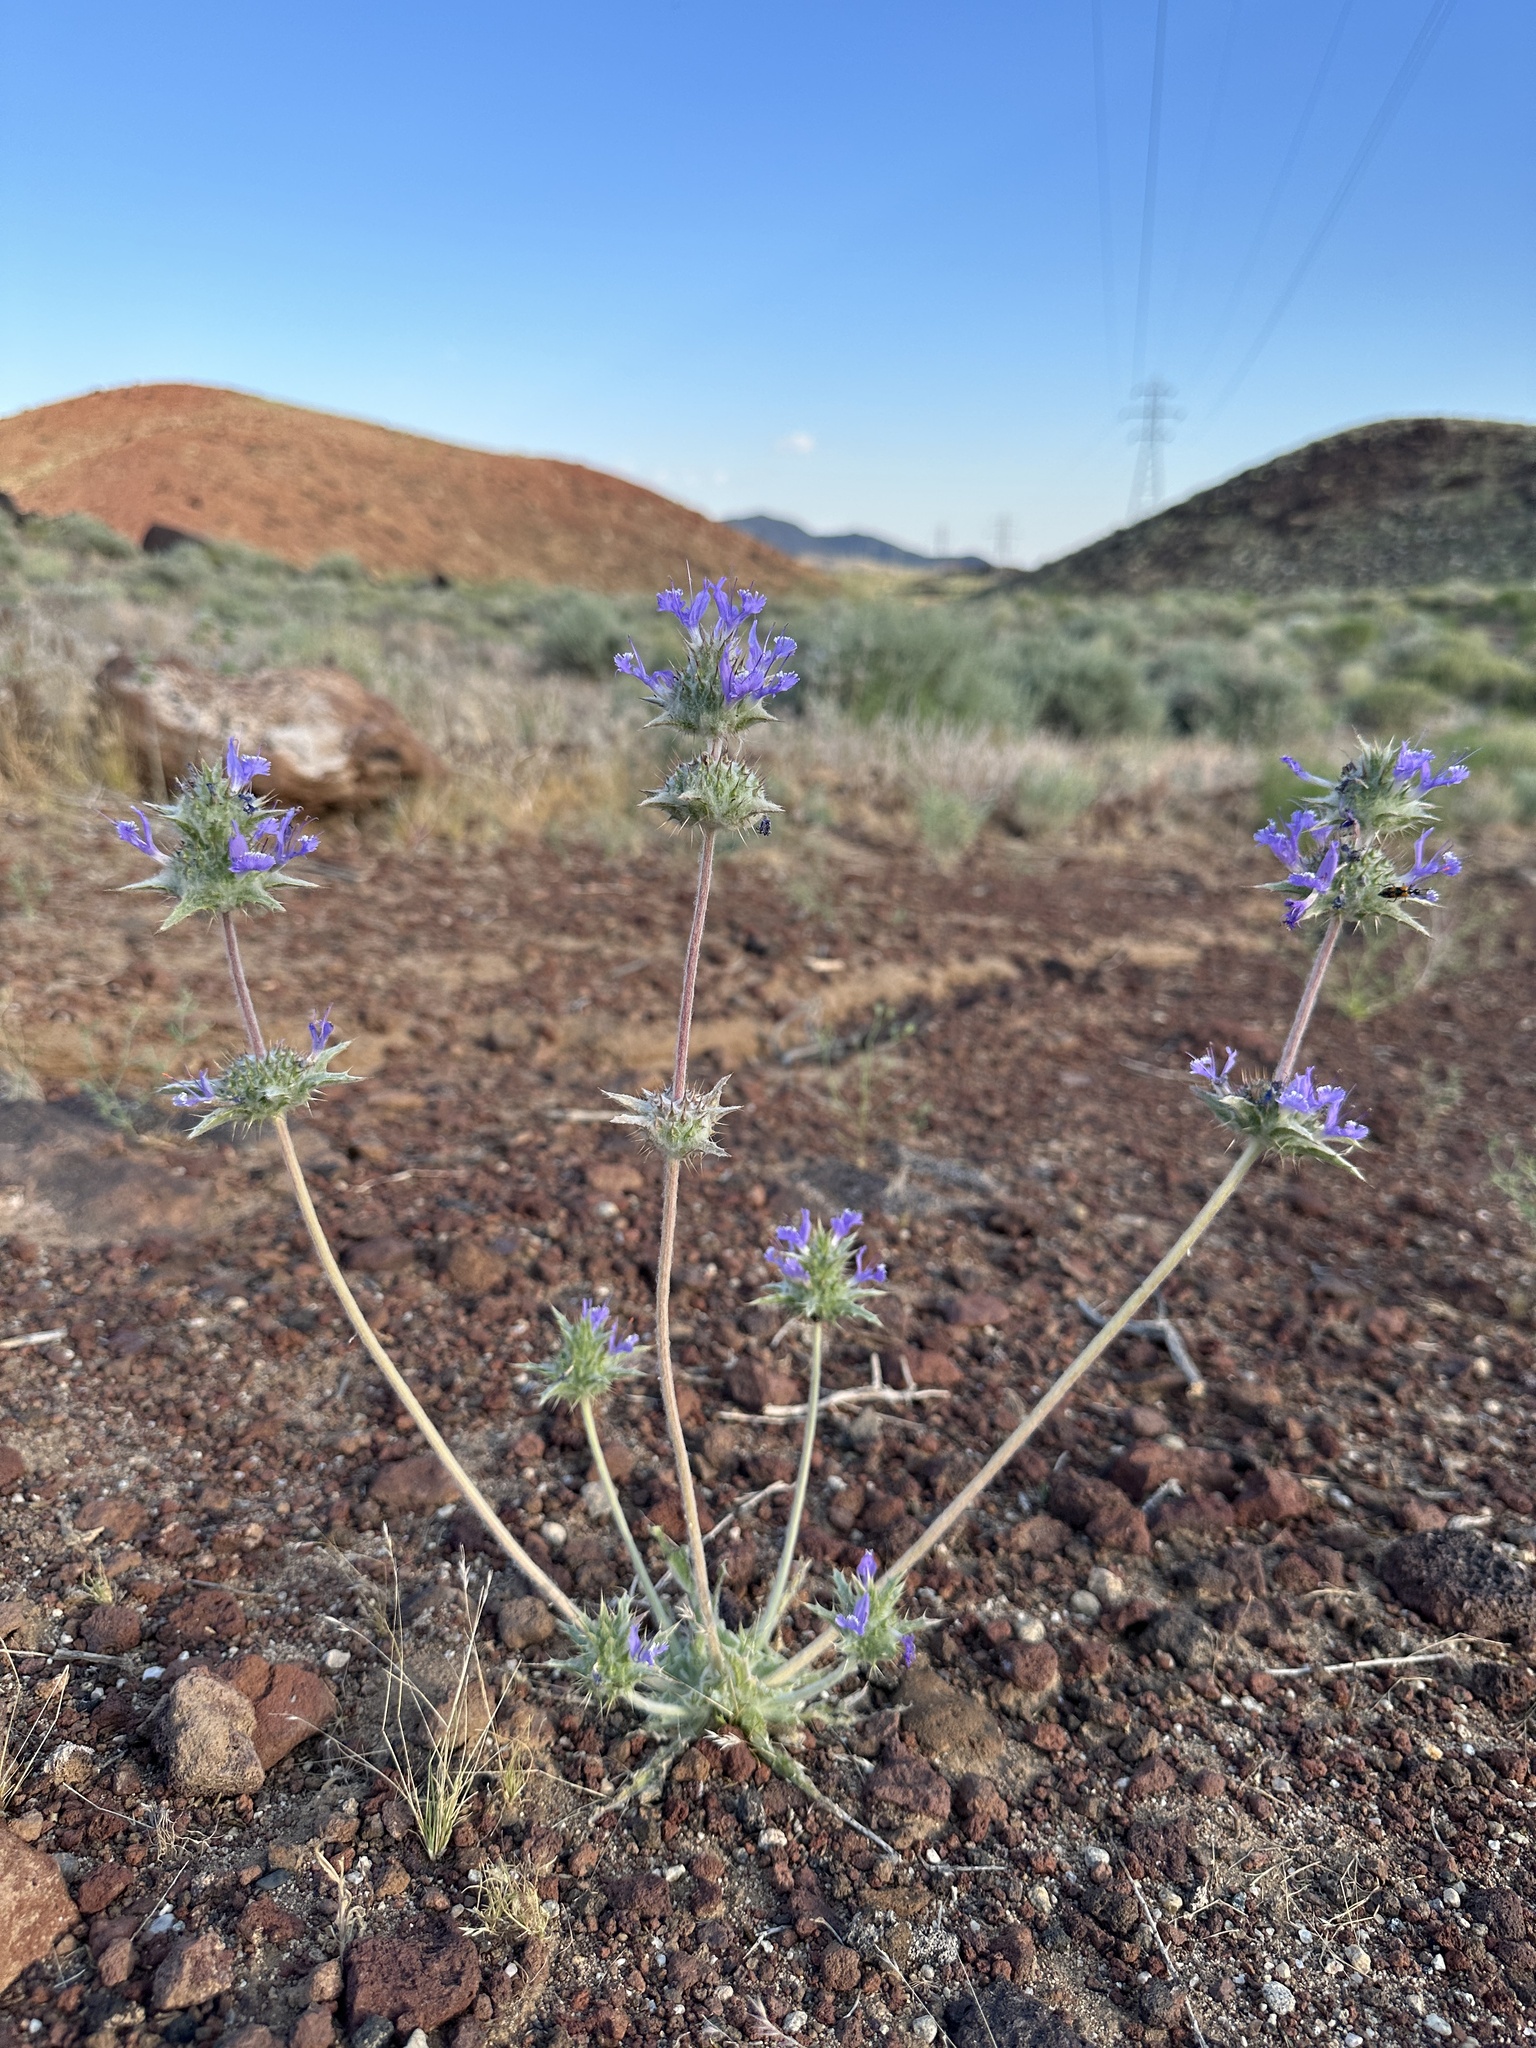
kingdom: Plantae
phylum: Tracheophyta
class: Magnoliopsida
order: Lamiales
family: Lamiaceae
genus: Salvia
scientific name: Salvia carduacea
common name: Thistle sage
